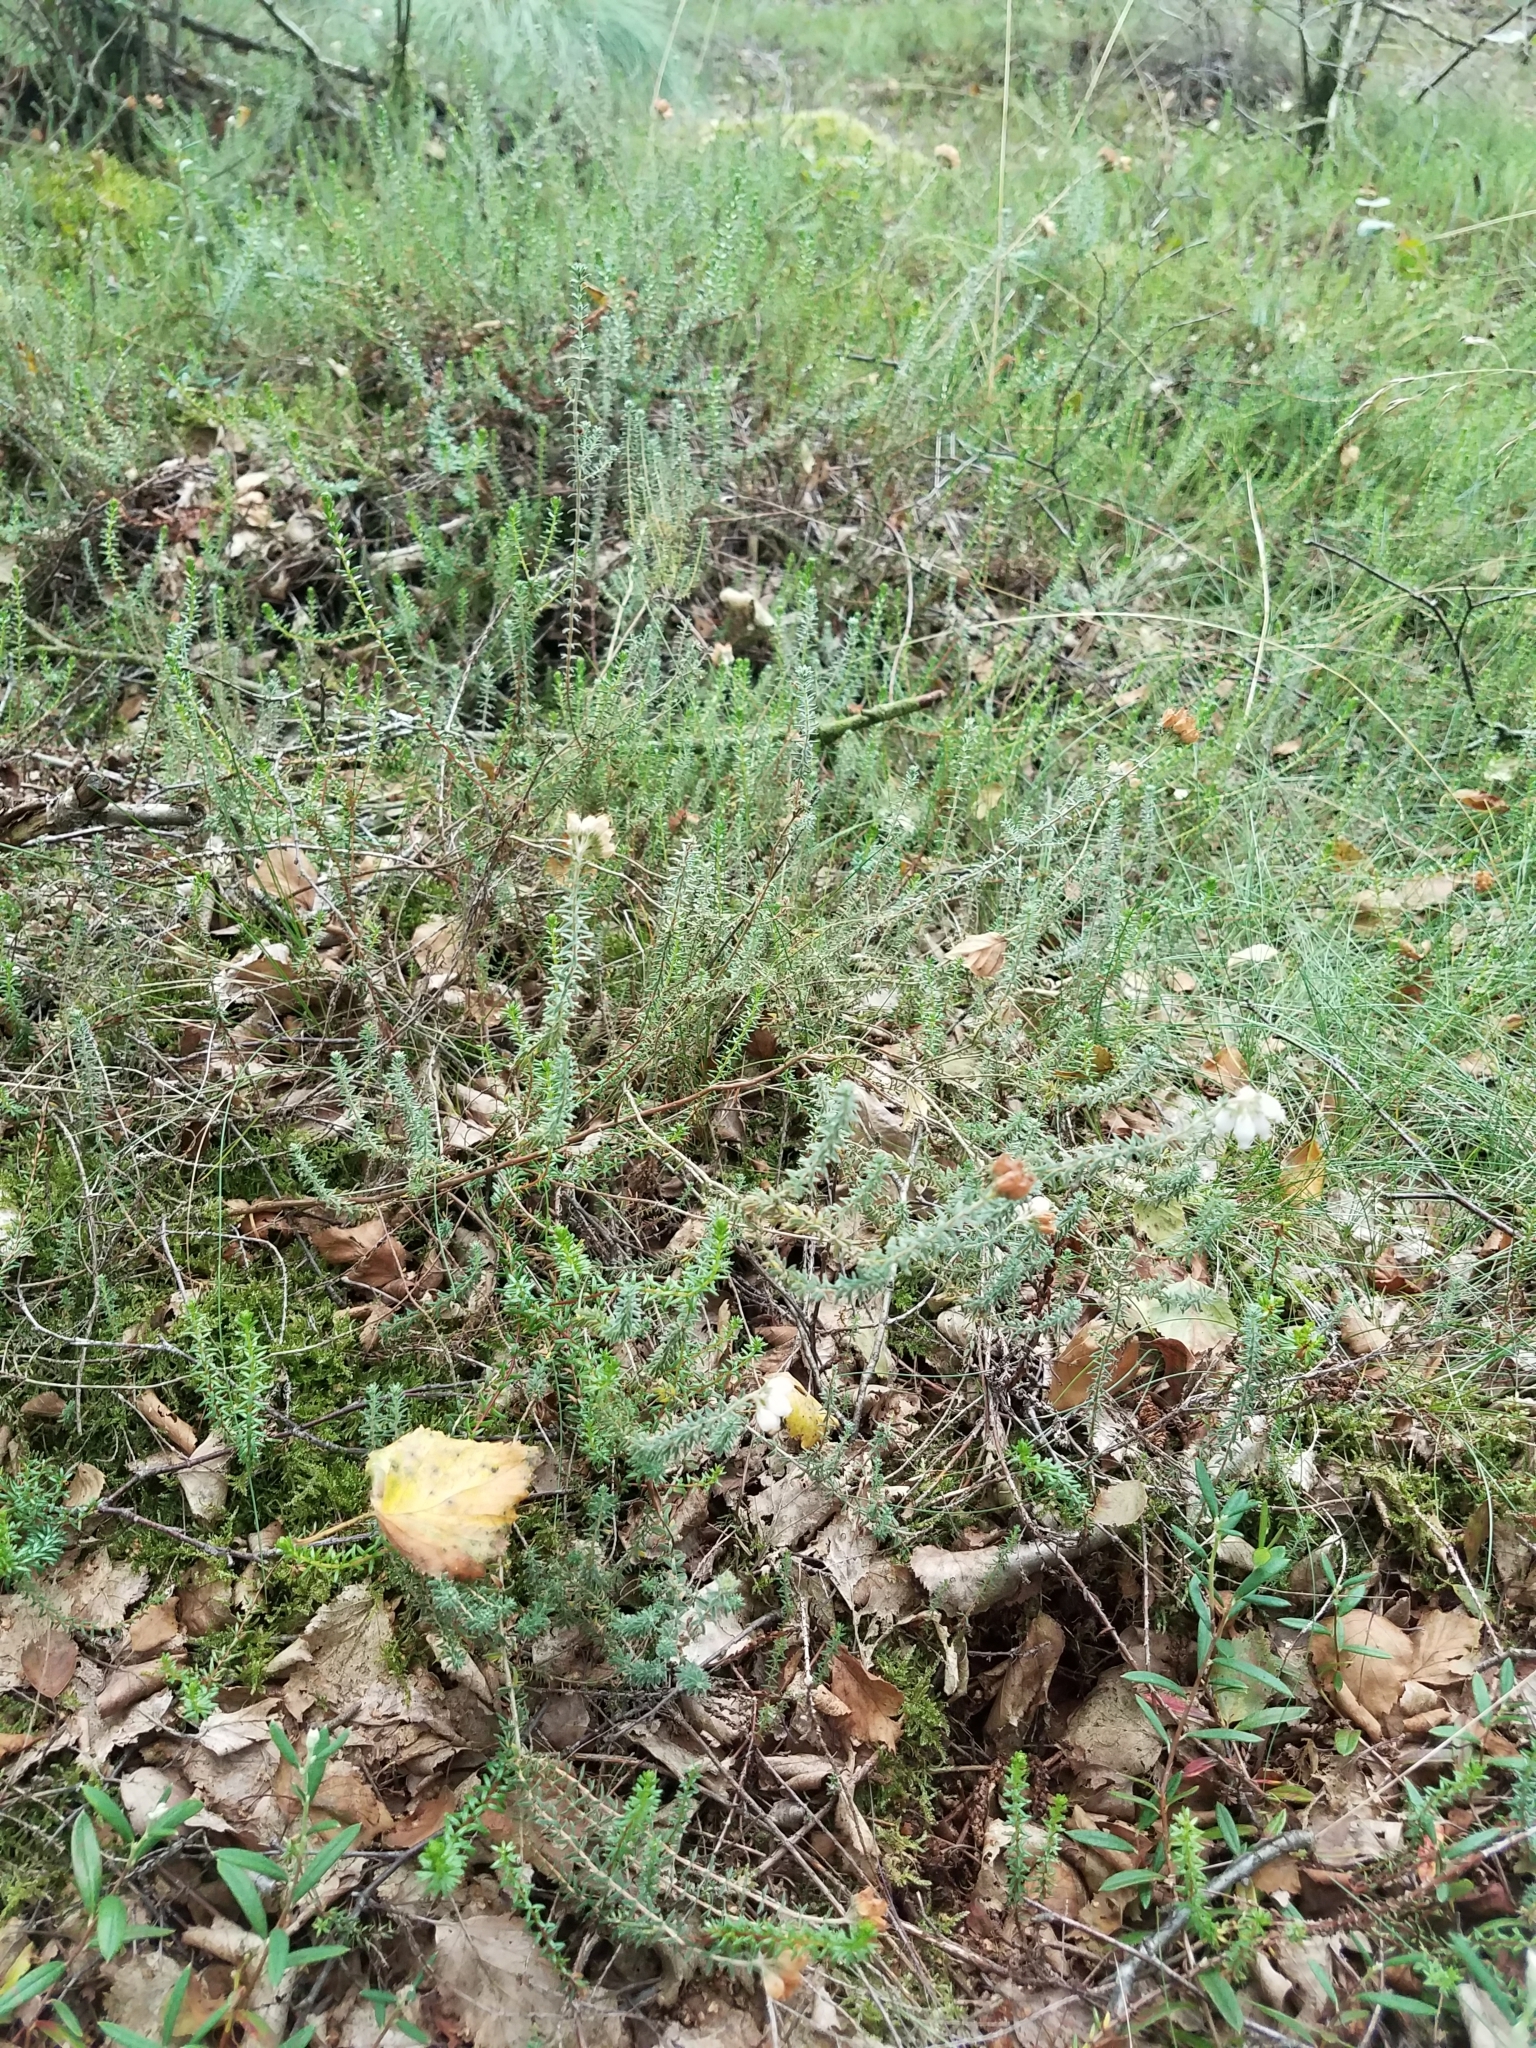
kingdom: Plantae
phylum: Tracheophyta
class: Magnoliopsida
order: Ericales
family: Ericaceae
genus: Erica
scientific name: Erica tetralix
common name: Cross-leaved heath
